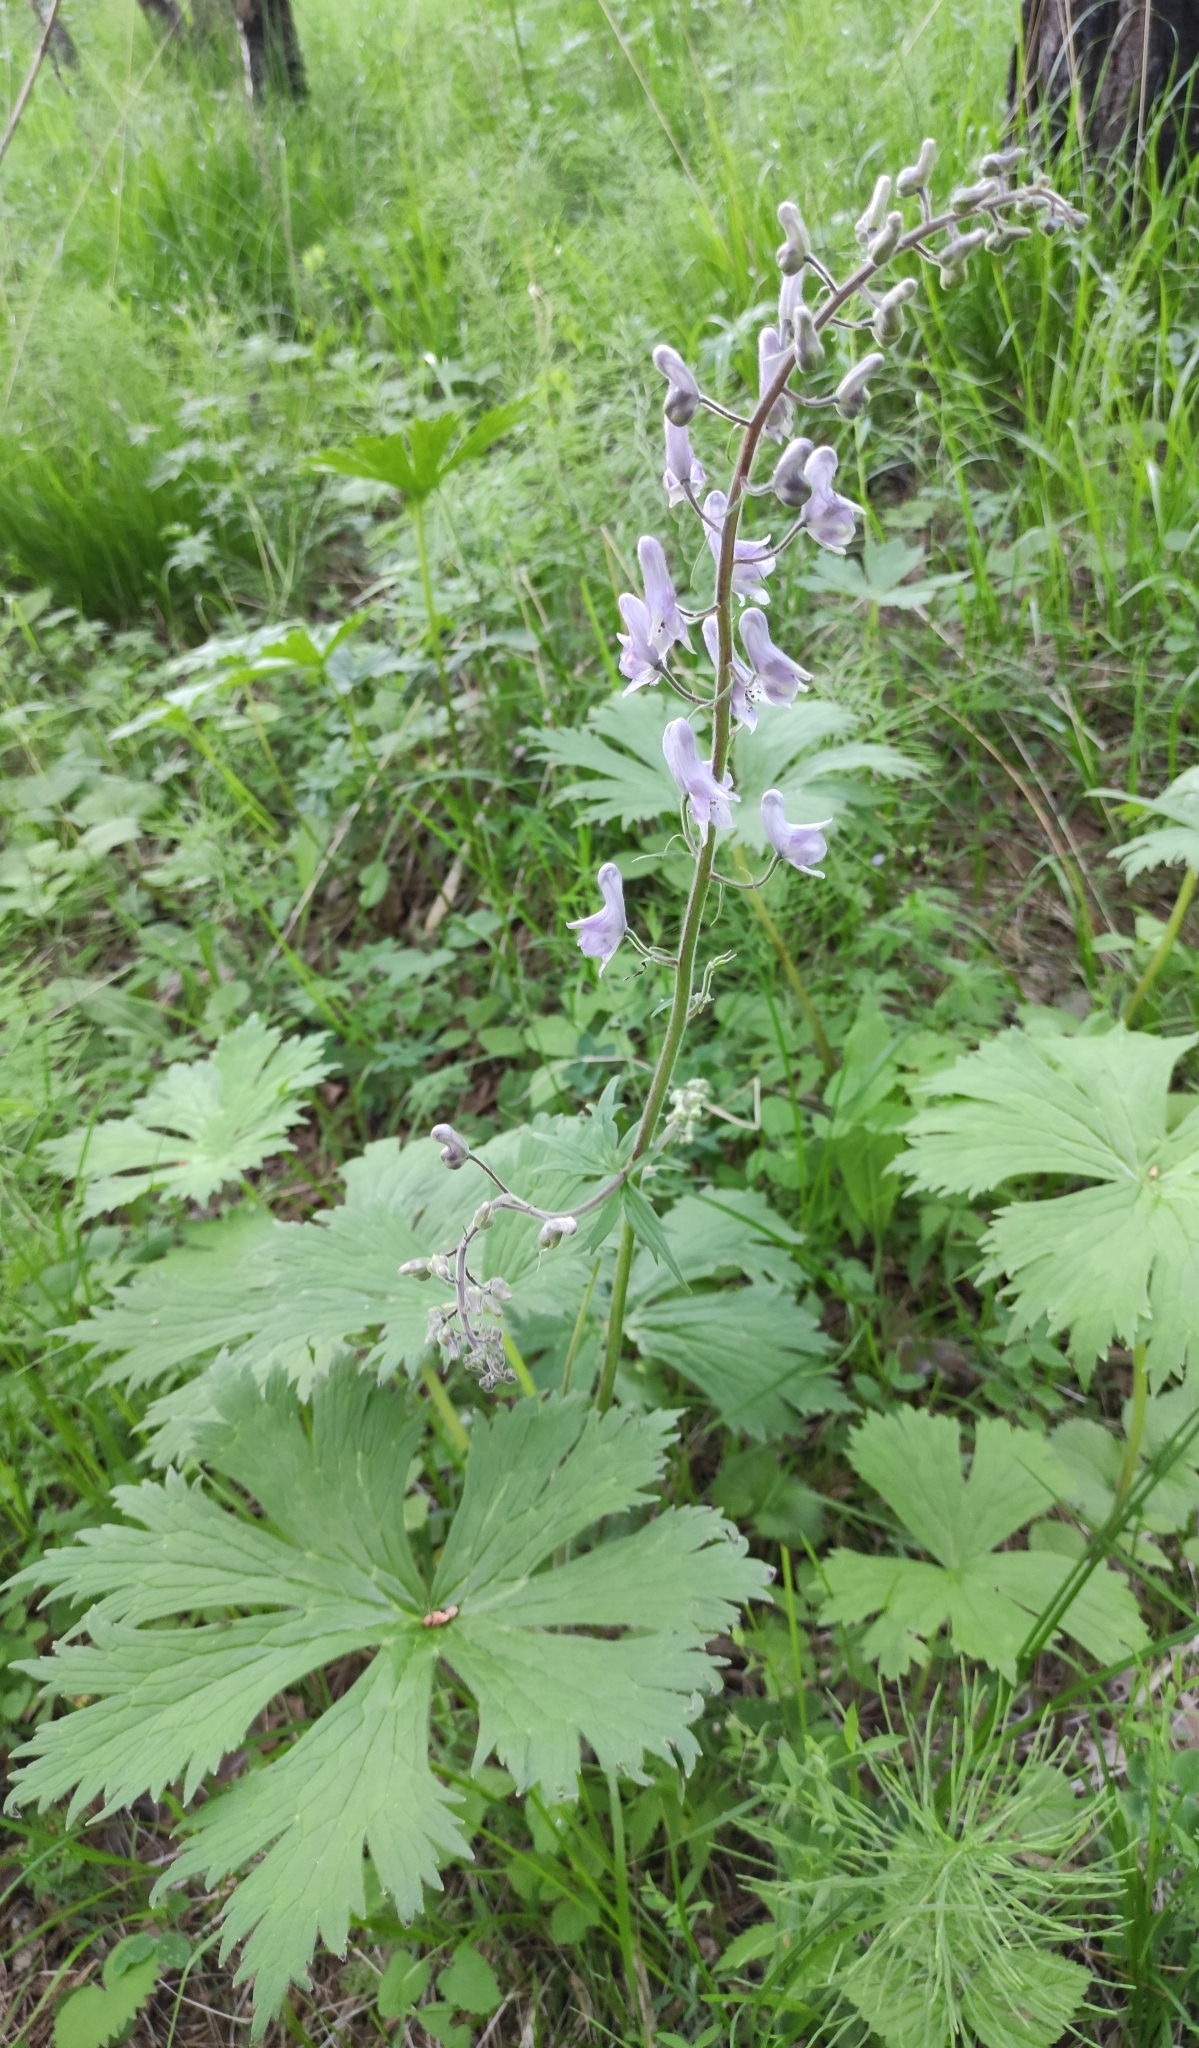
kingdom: Plantae
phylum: Tracheophyta
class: Magnoliopsida
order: Ranunculales
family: Ranunculaceae
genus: Aconitum
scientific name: Aconitum septentrionale
